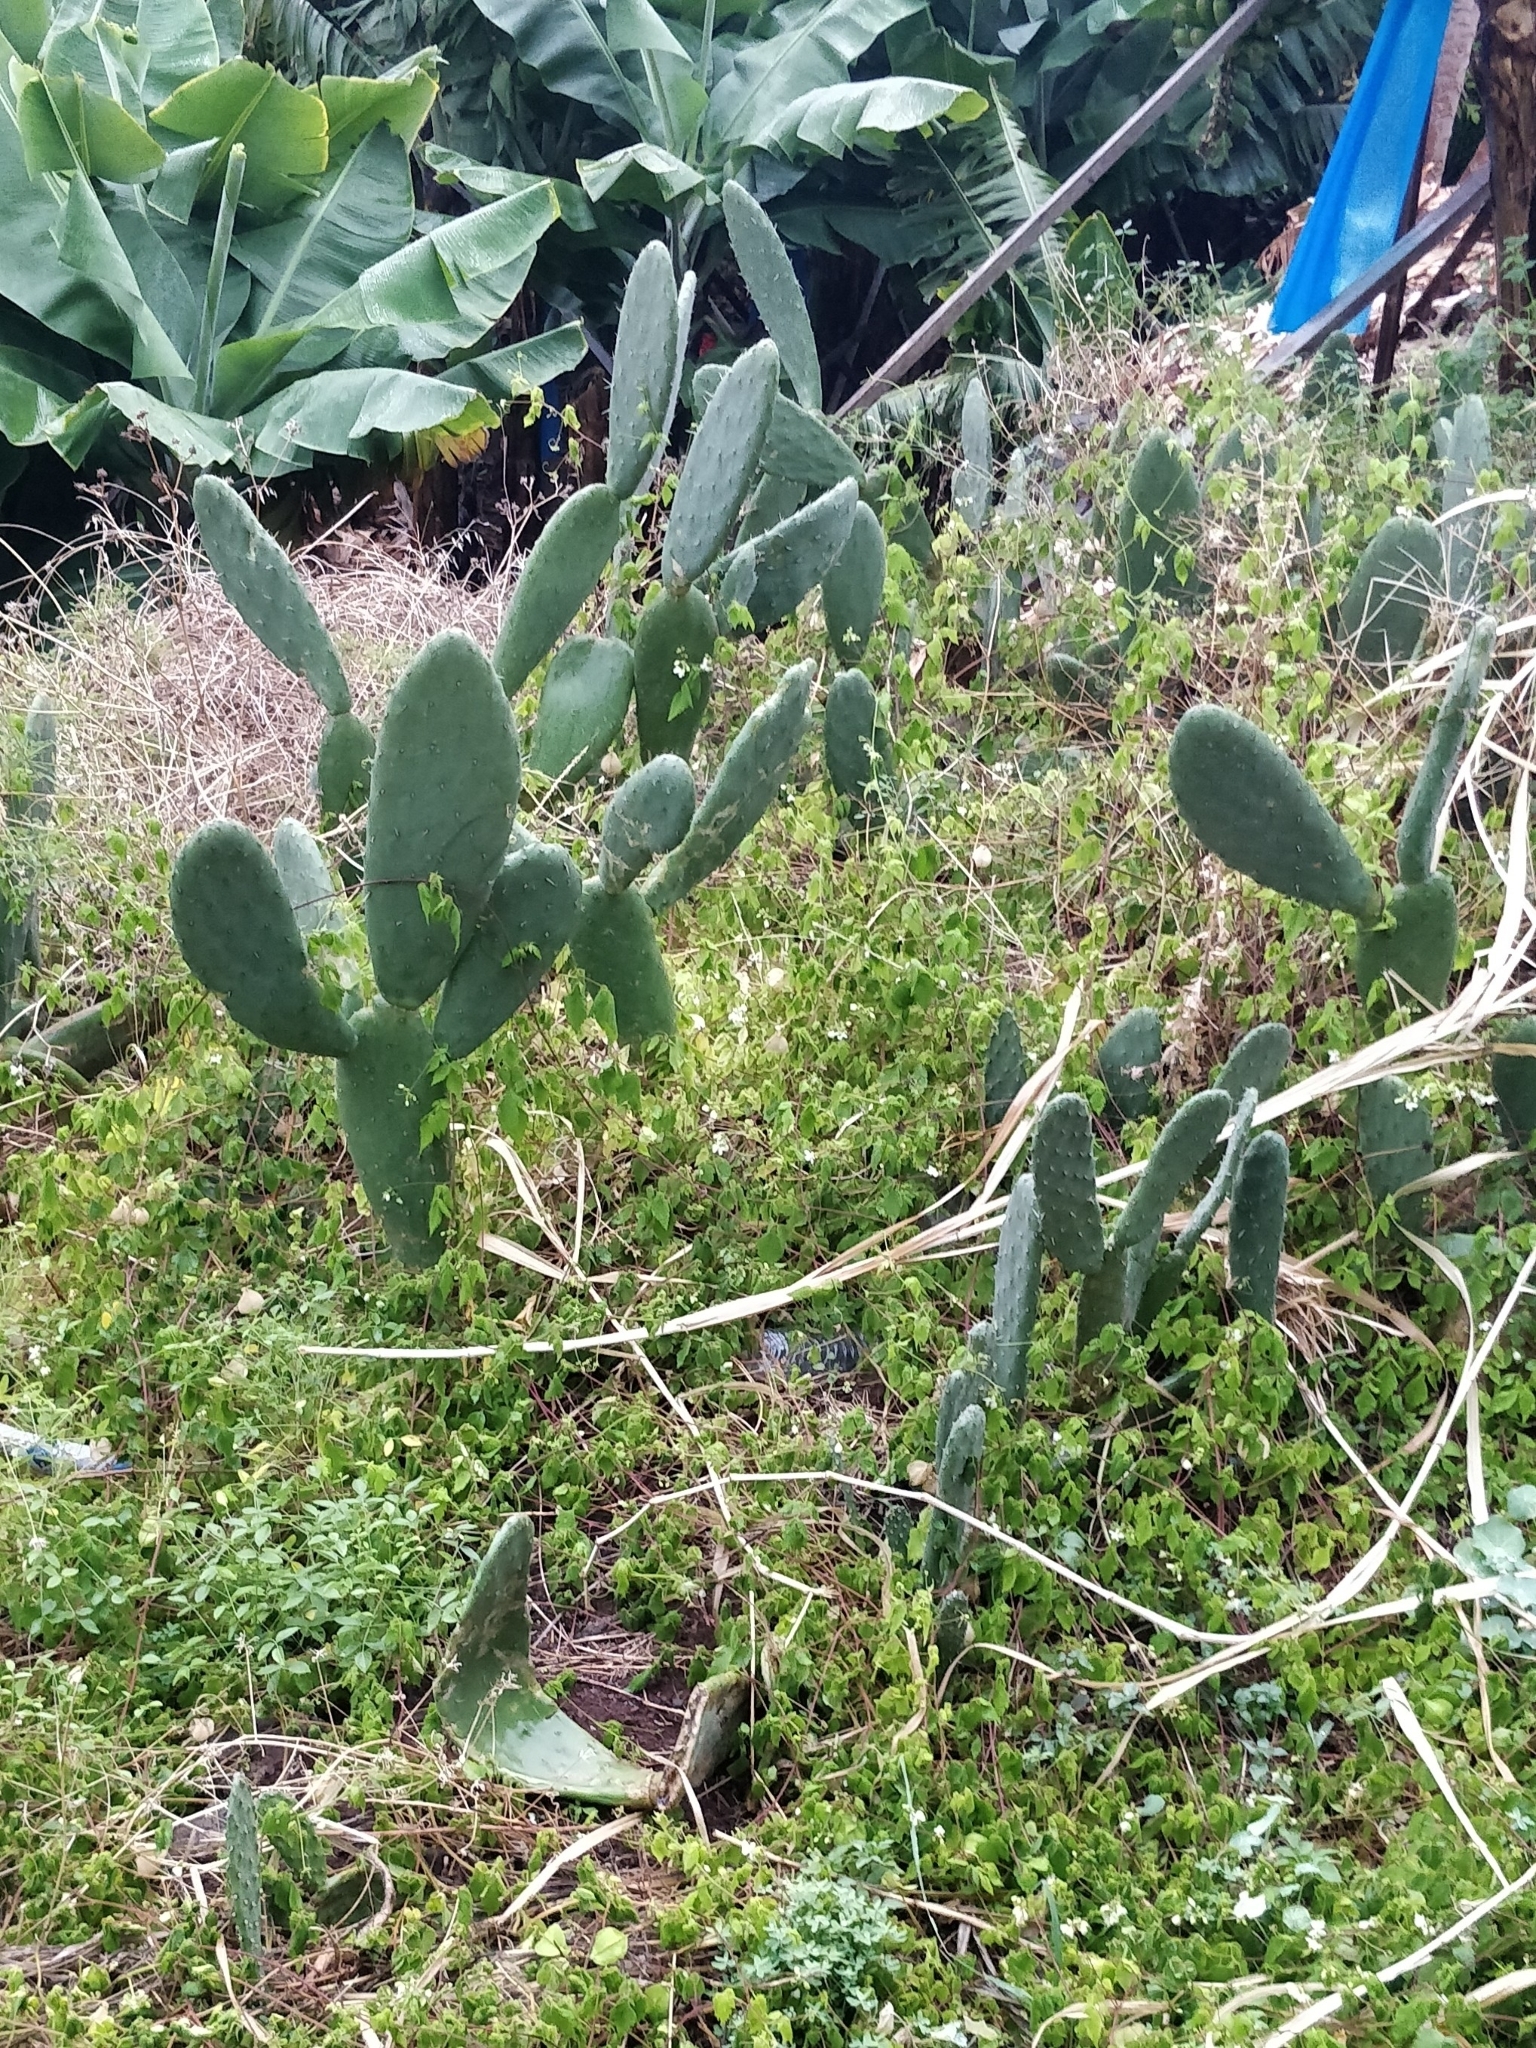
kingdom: Plantae
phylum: Tracheophyta
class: Magnoliopsida
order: Caryophyllales
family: Cactaceae
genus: Opuntia
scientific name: Opuntia ficus-indica
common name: Barbary fig
